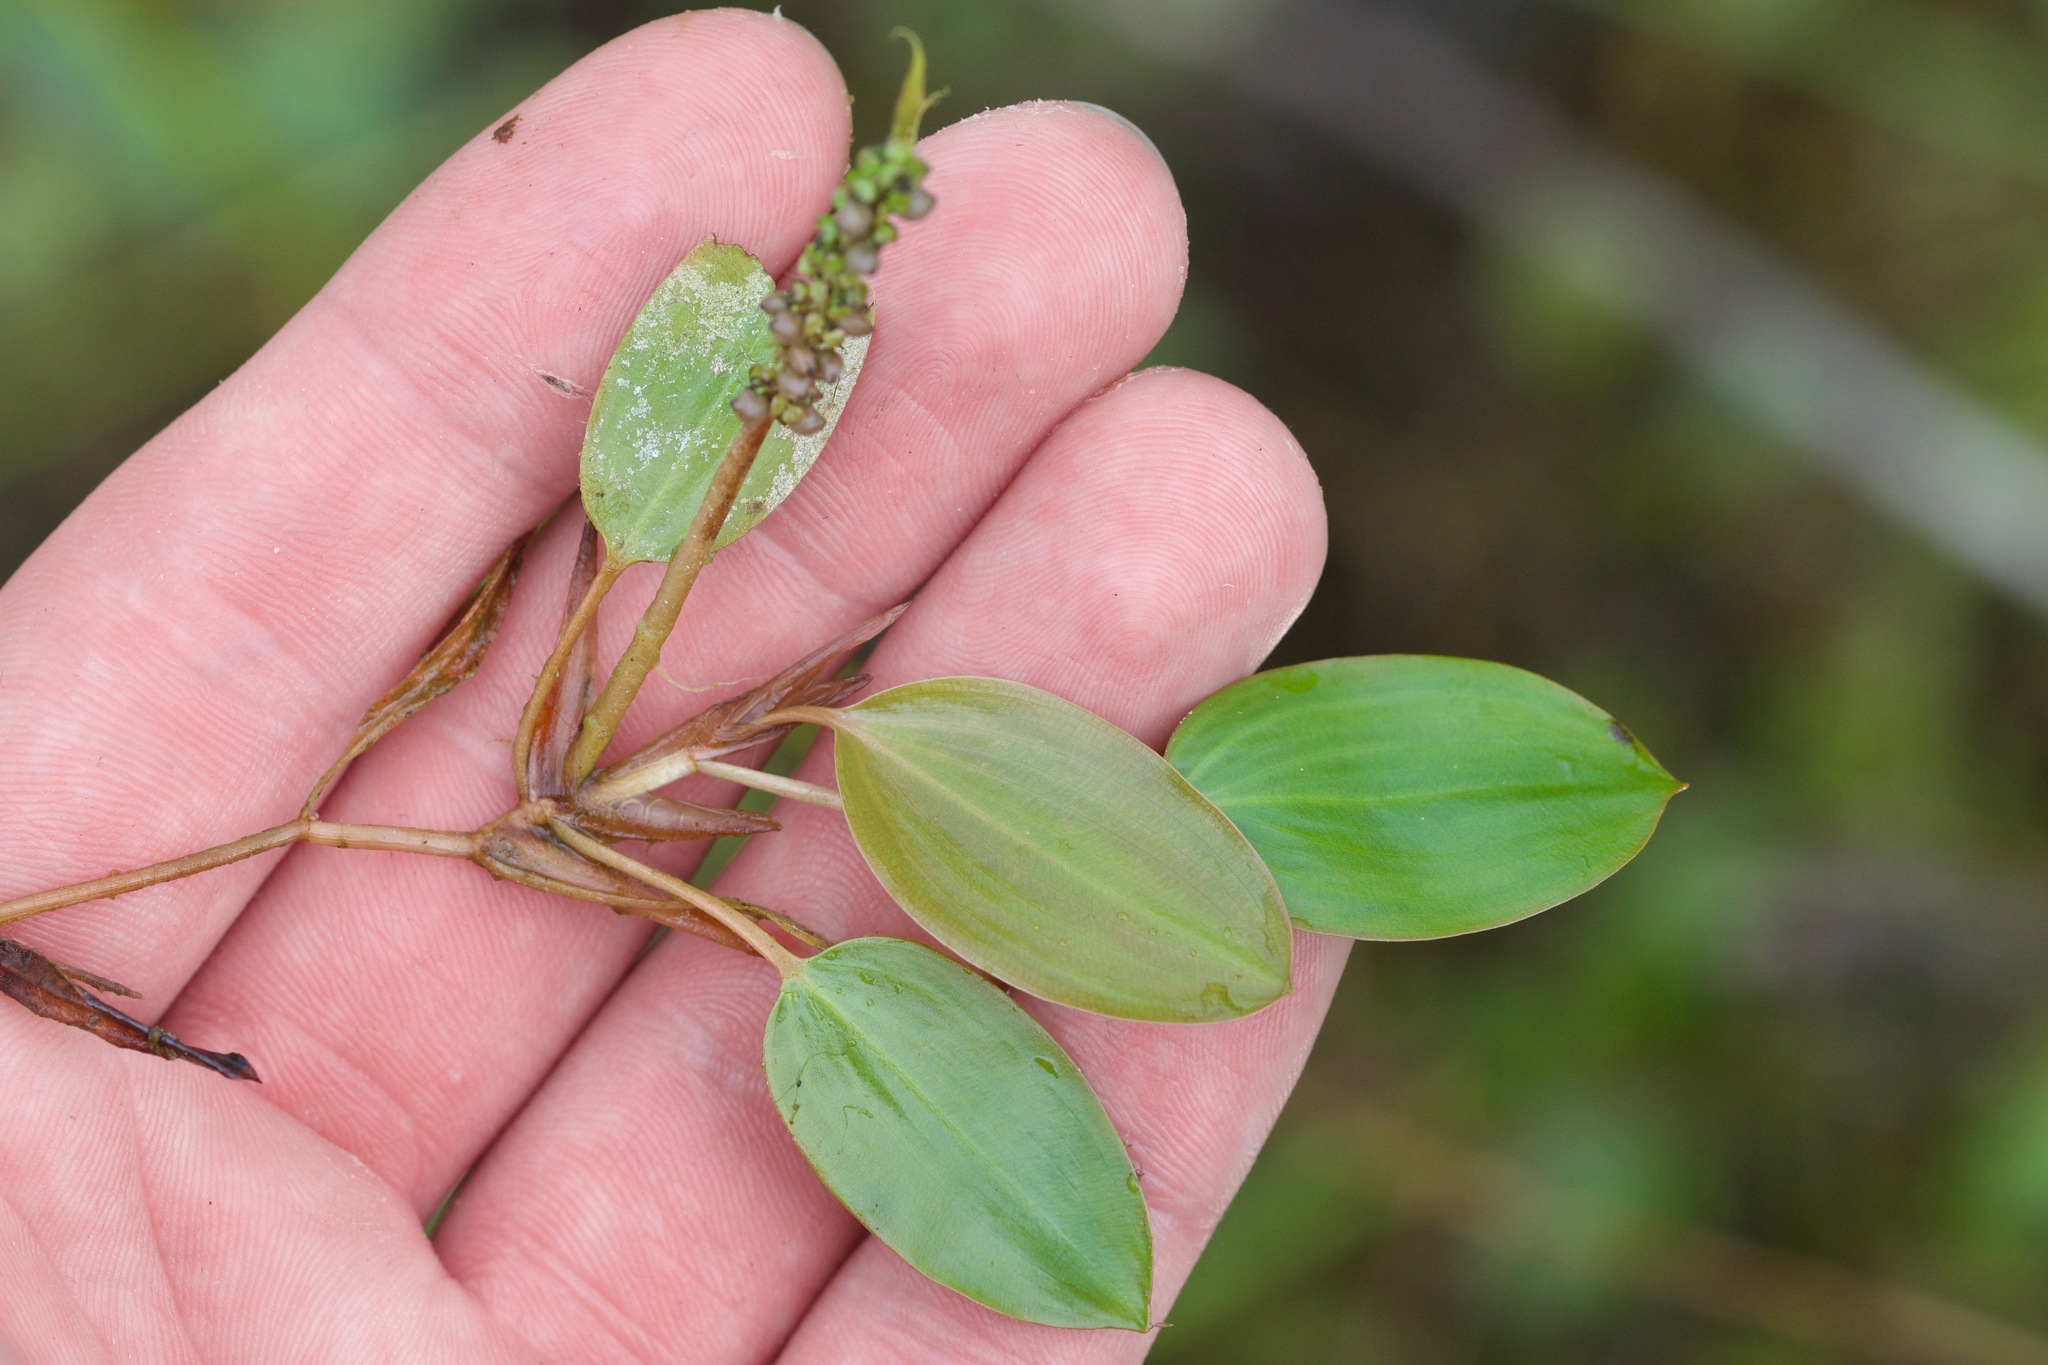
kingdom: Plantae
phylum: Tracheophyta
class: Liliopsida
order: Alismatales
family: Potamogetonaceae
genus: Potamogeton
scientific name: Potamogeton gramineus
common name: Various-leaved pondweed
